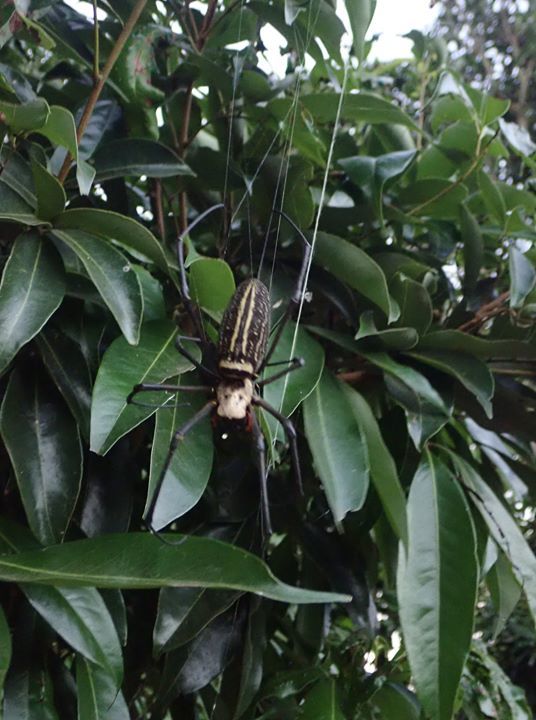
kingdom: Animalia
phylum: Arthropoda
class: Arachnida
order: Araneae
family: Araneidae
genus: Nephila
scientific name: Nephila pilipes
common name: Giant golden orb weaver
